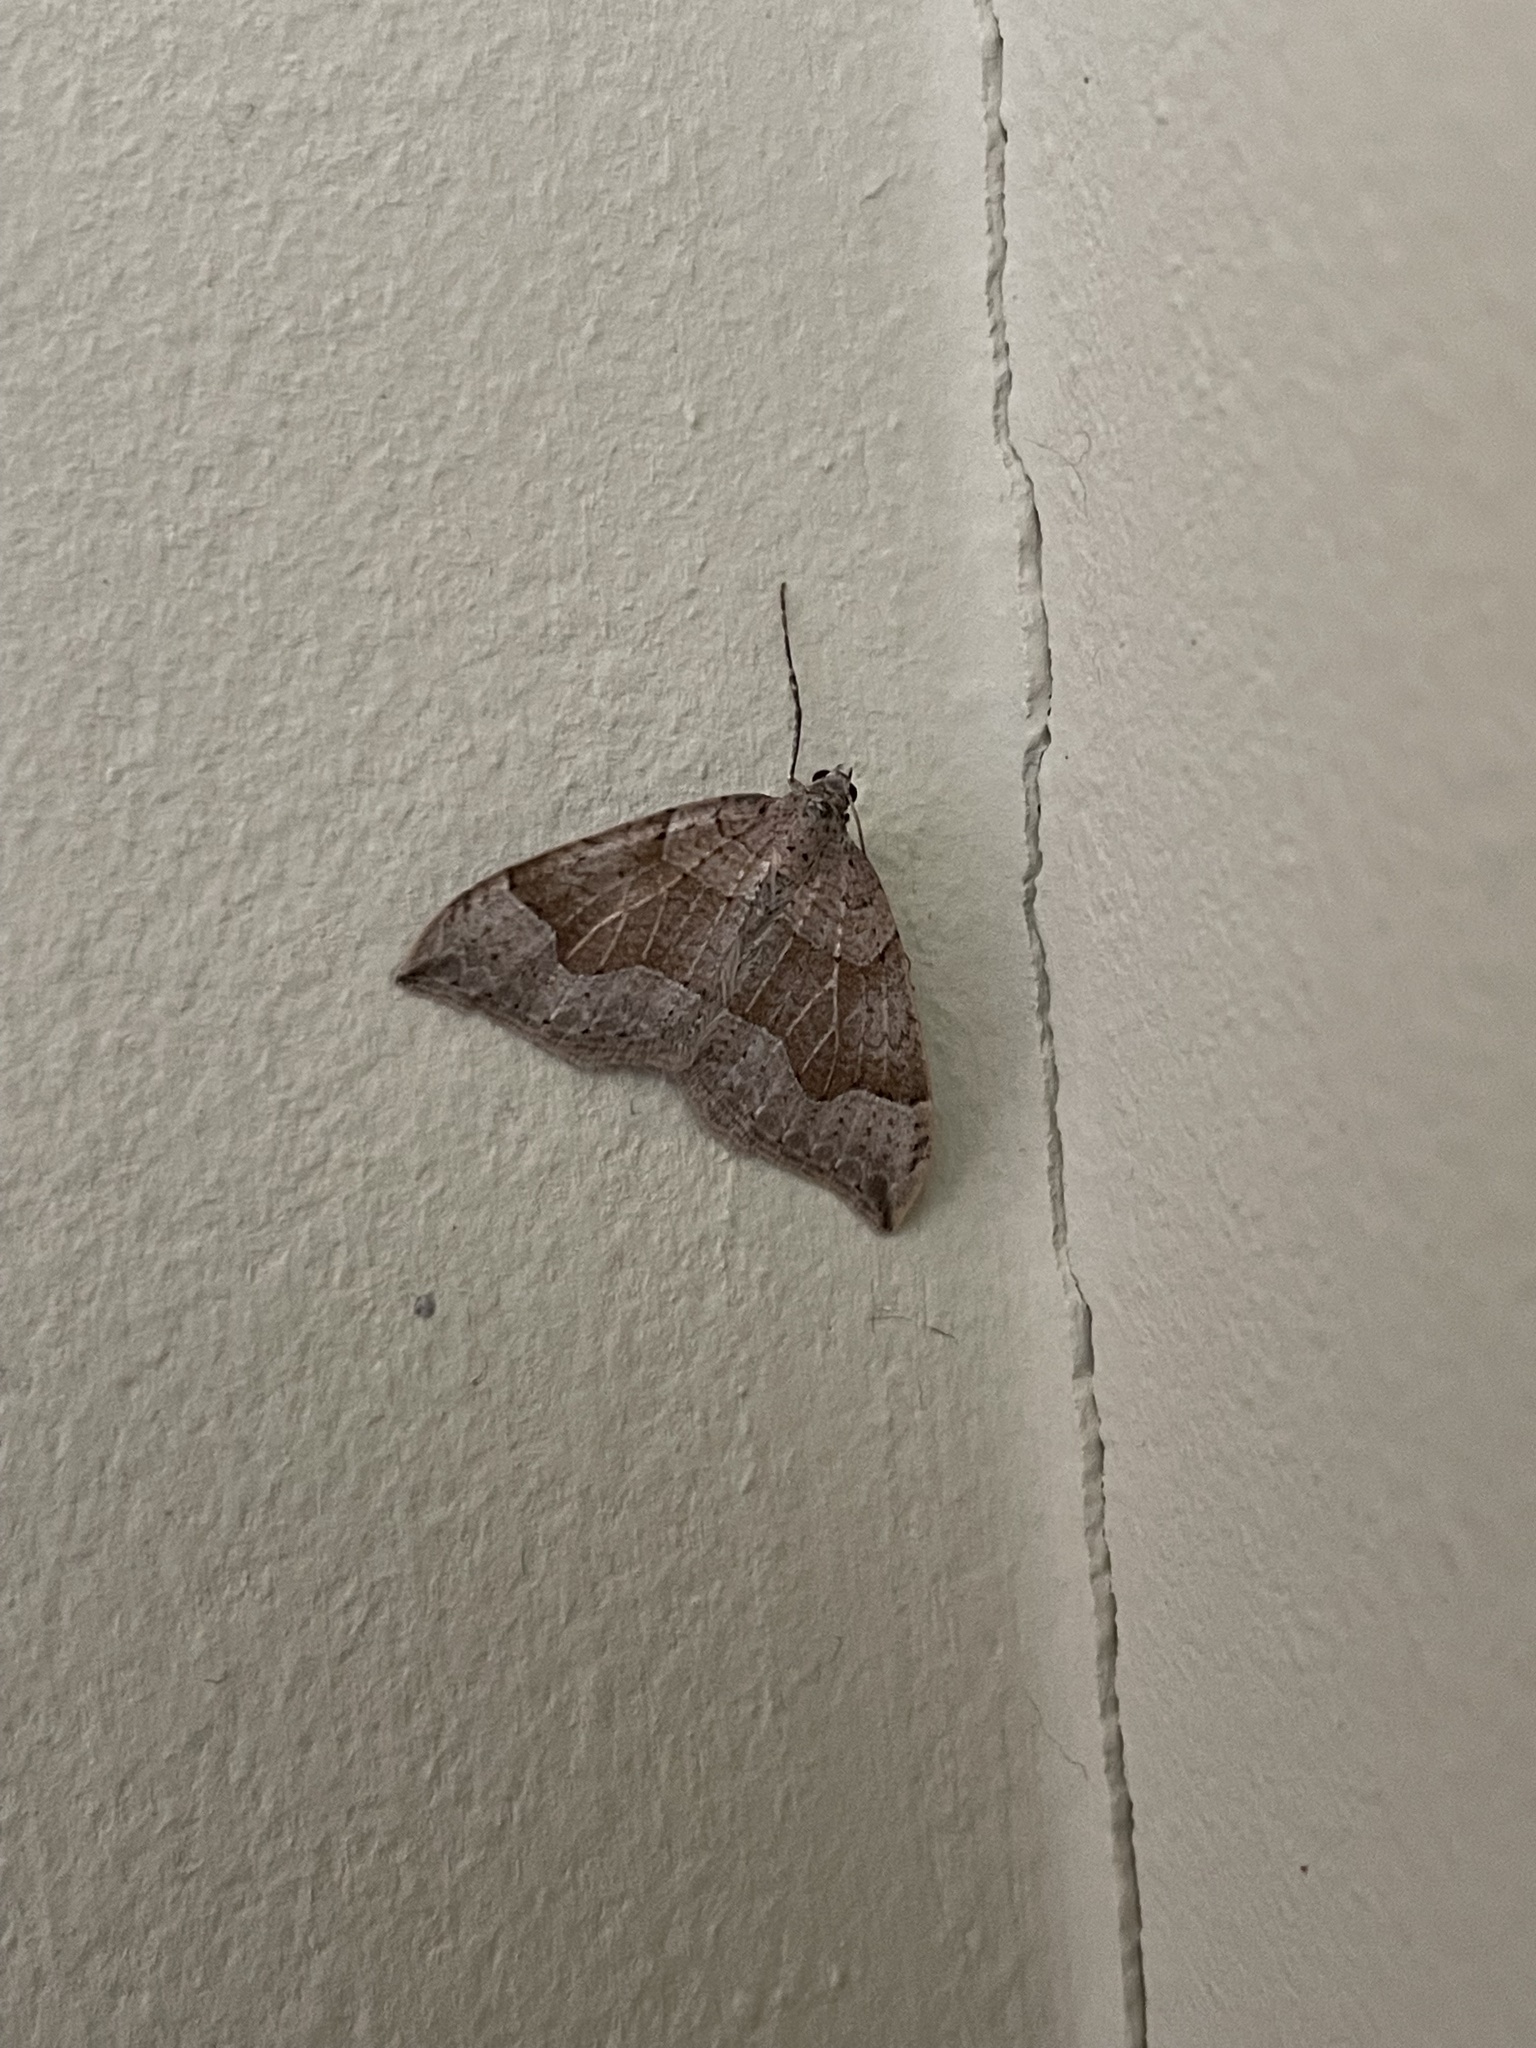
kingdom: Animalia
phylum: Arthropoda
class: Insecta
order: Lepidoptera
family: Geometridae
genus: Zenophleps
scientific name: Zenophleps lignicolorata
